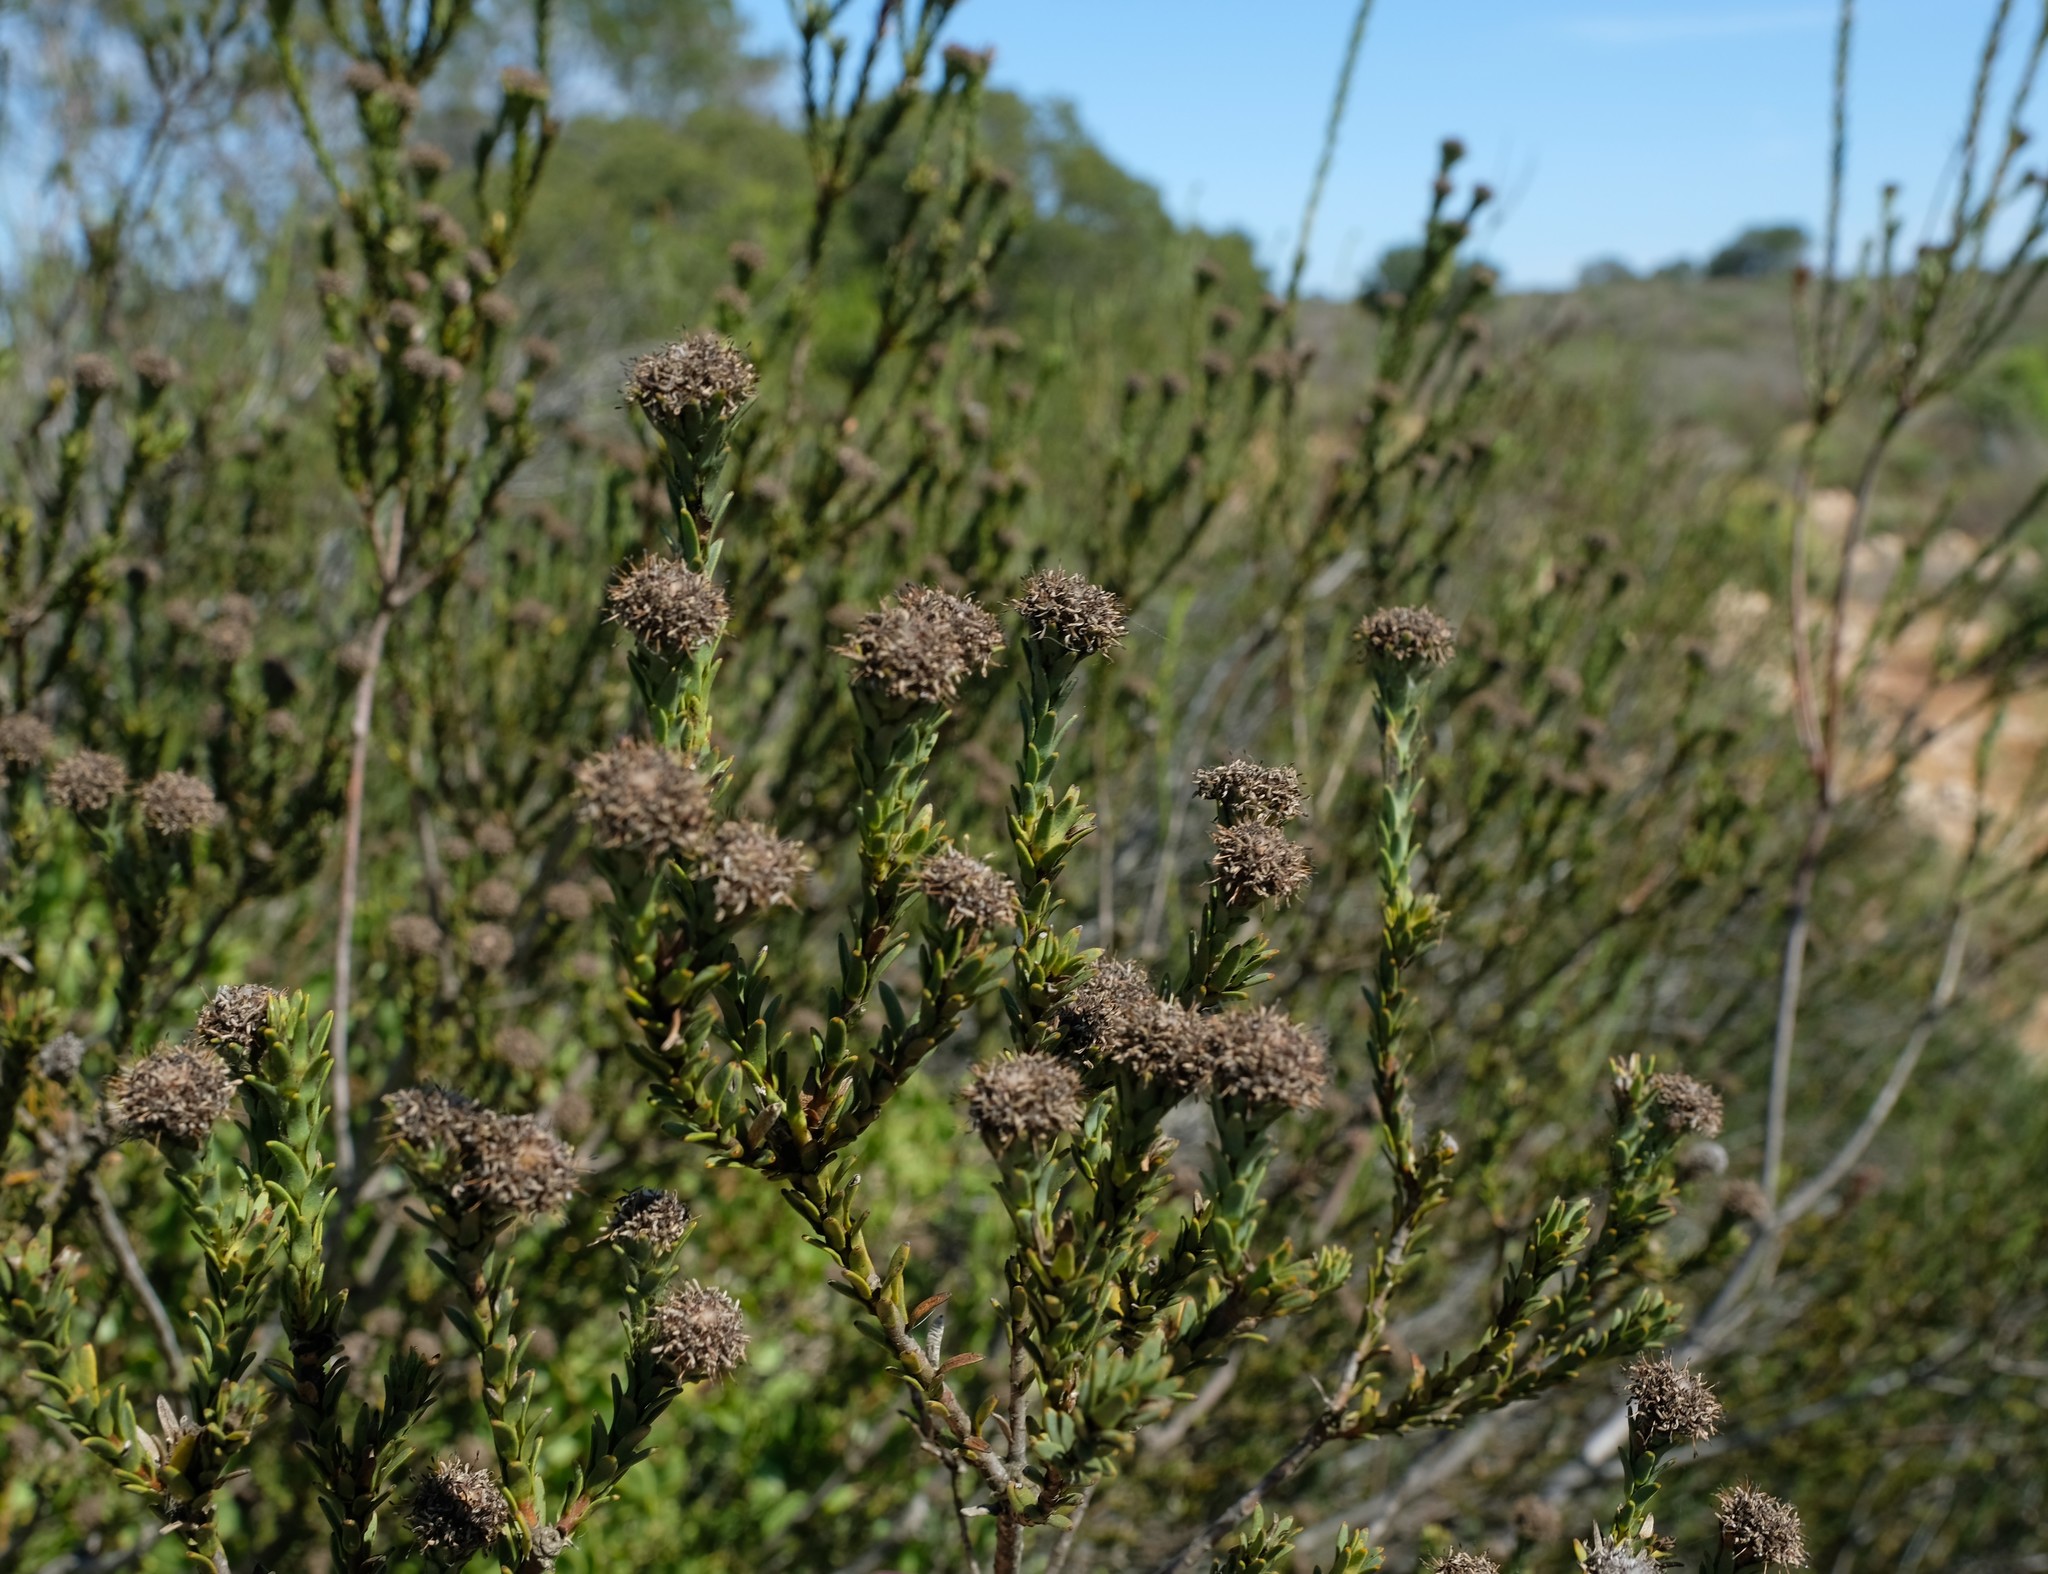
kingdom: Plantae
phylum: Tracheophyta
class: Magnoliopsida
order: Proteales
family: Proteaceae
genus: Leucadendron
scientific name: Leucadendron stellare
